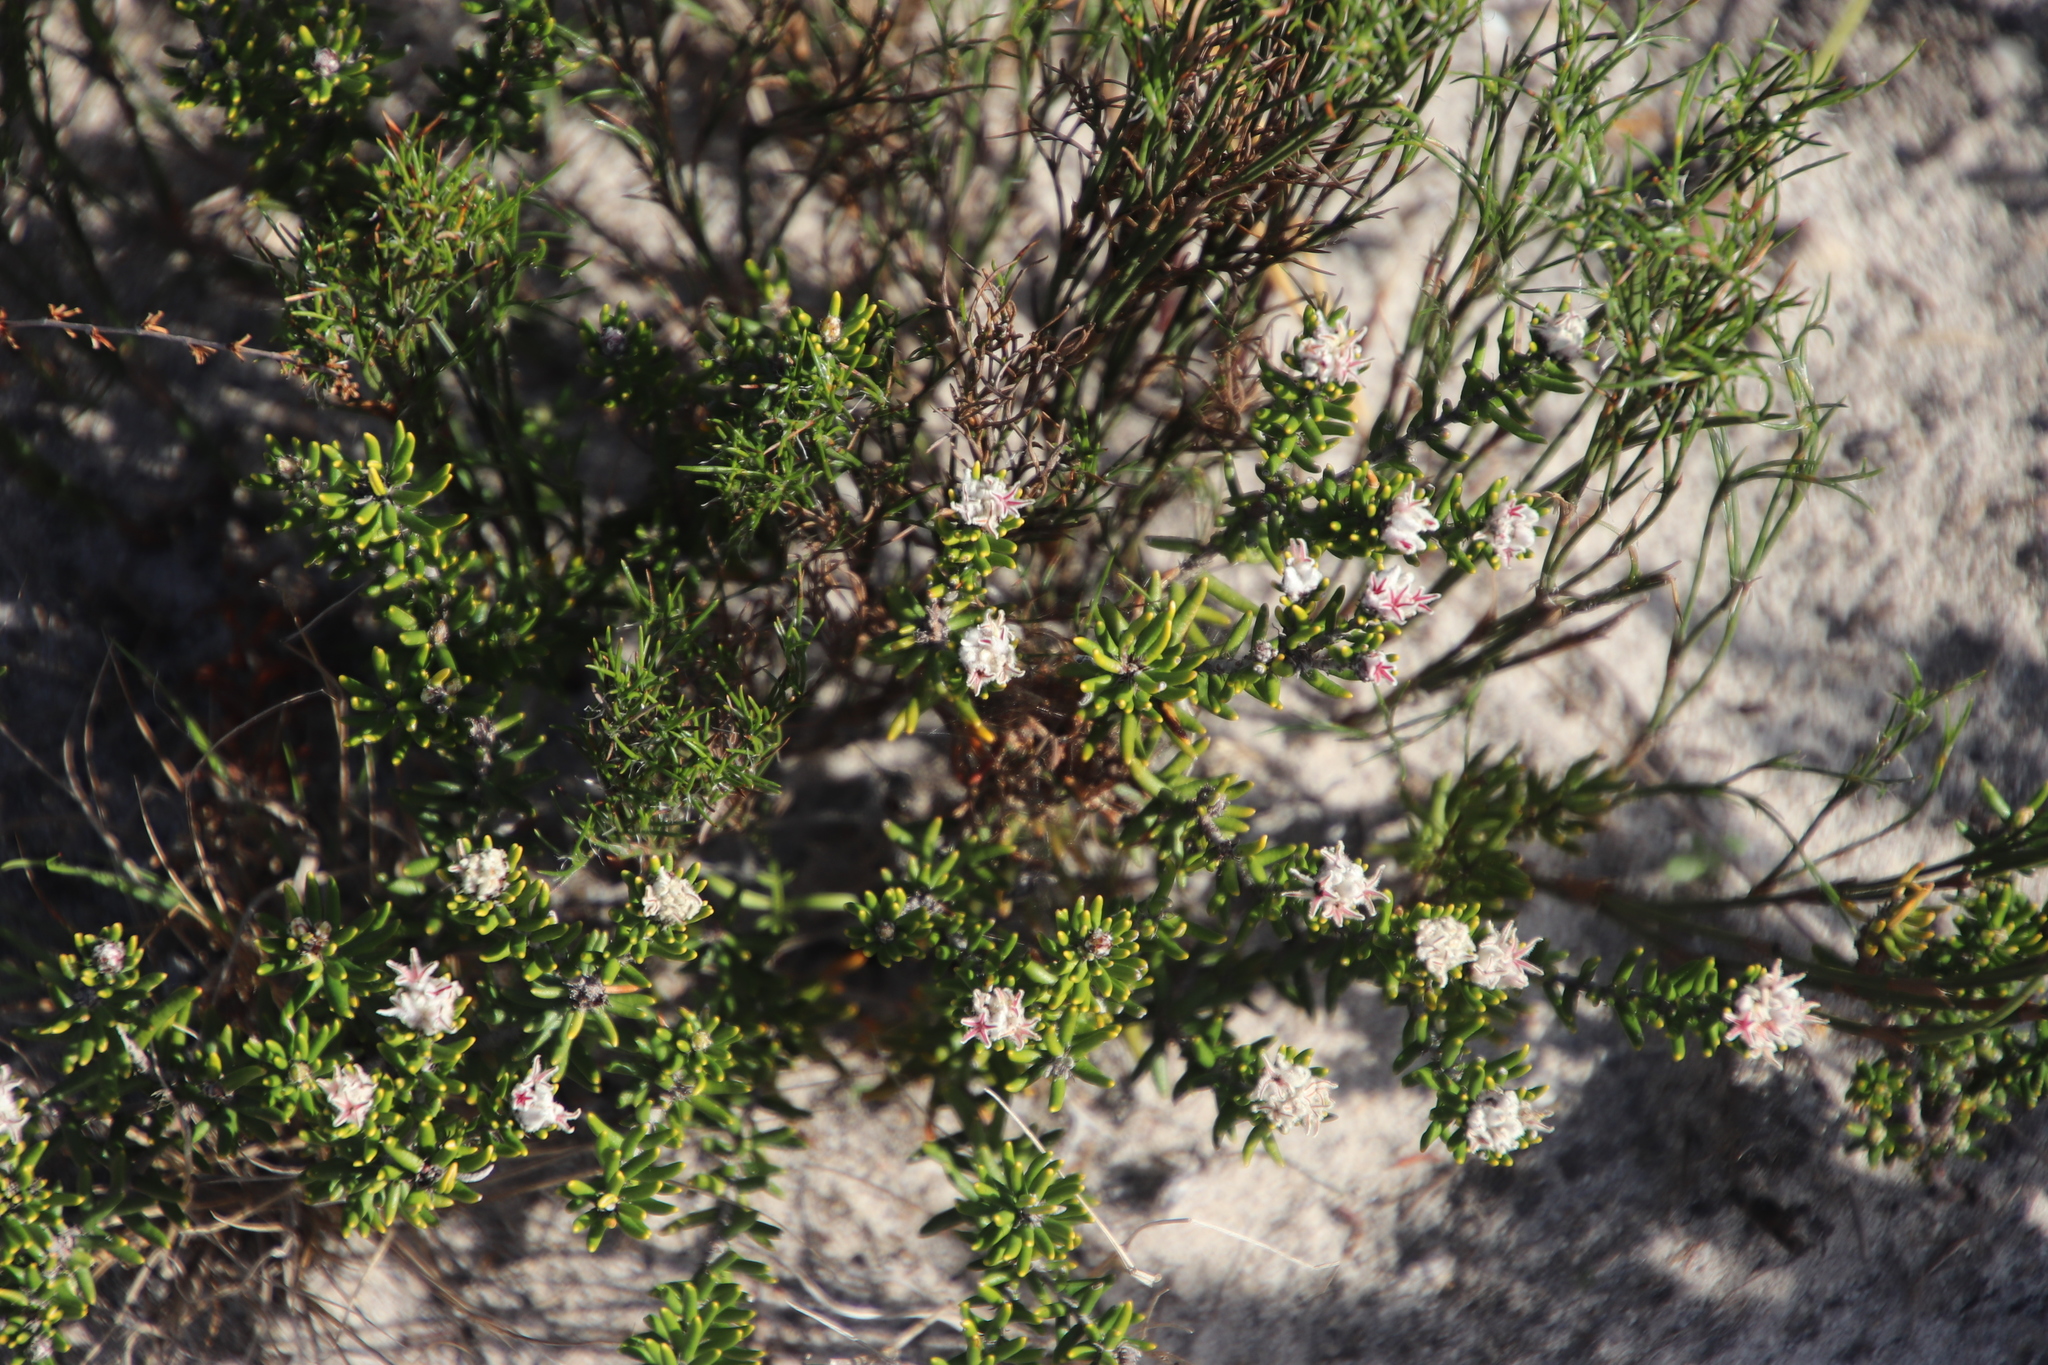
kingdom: Plantae
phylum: Tracheophyta
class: Magnoliopsida
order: Rosales
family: Rhamnaceae
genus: Trichocephalus
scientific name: Trichocephalus stipularis
